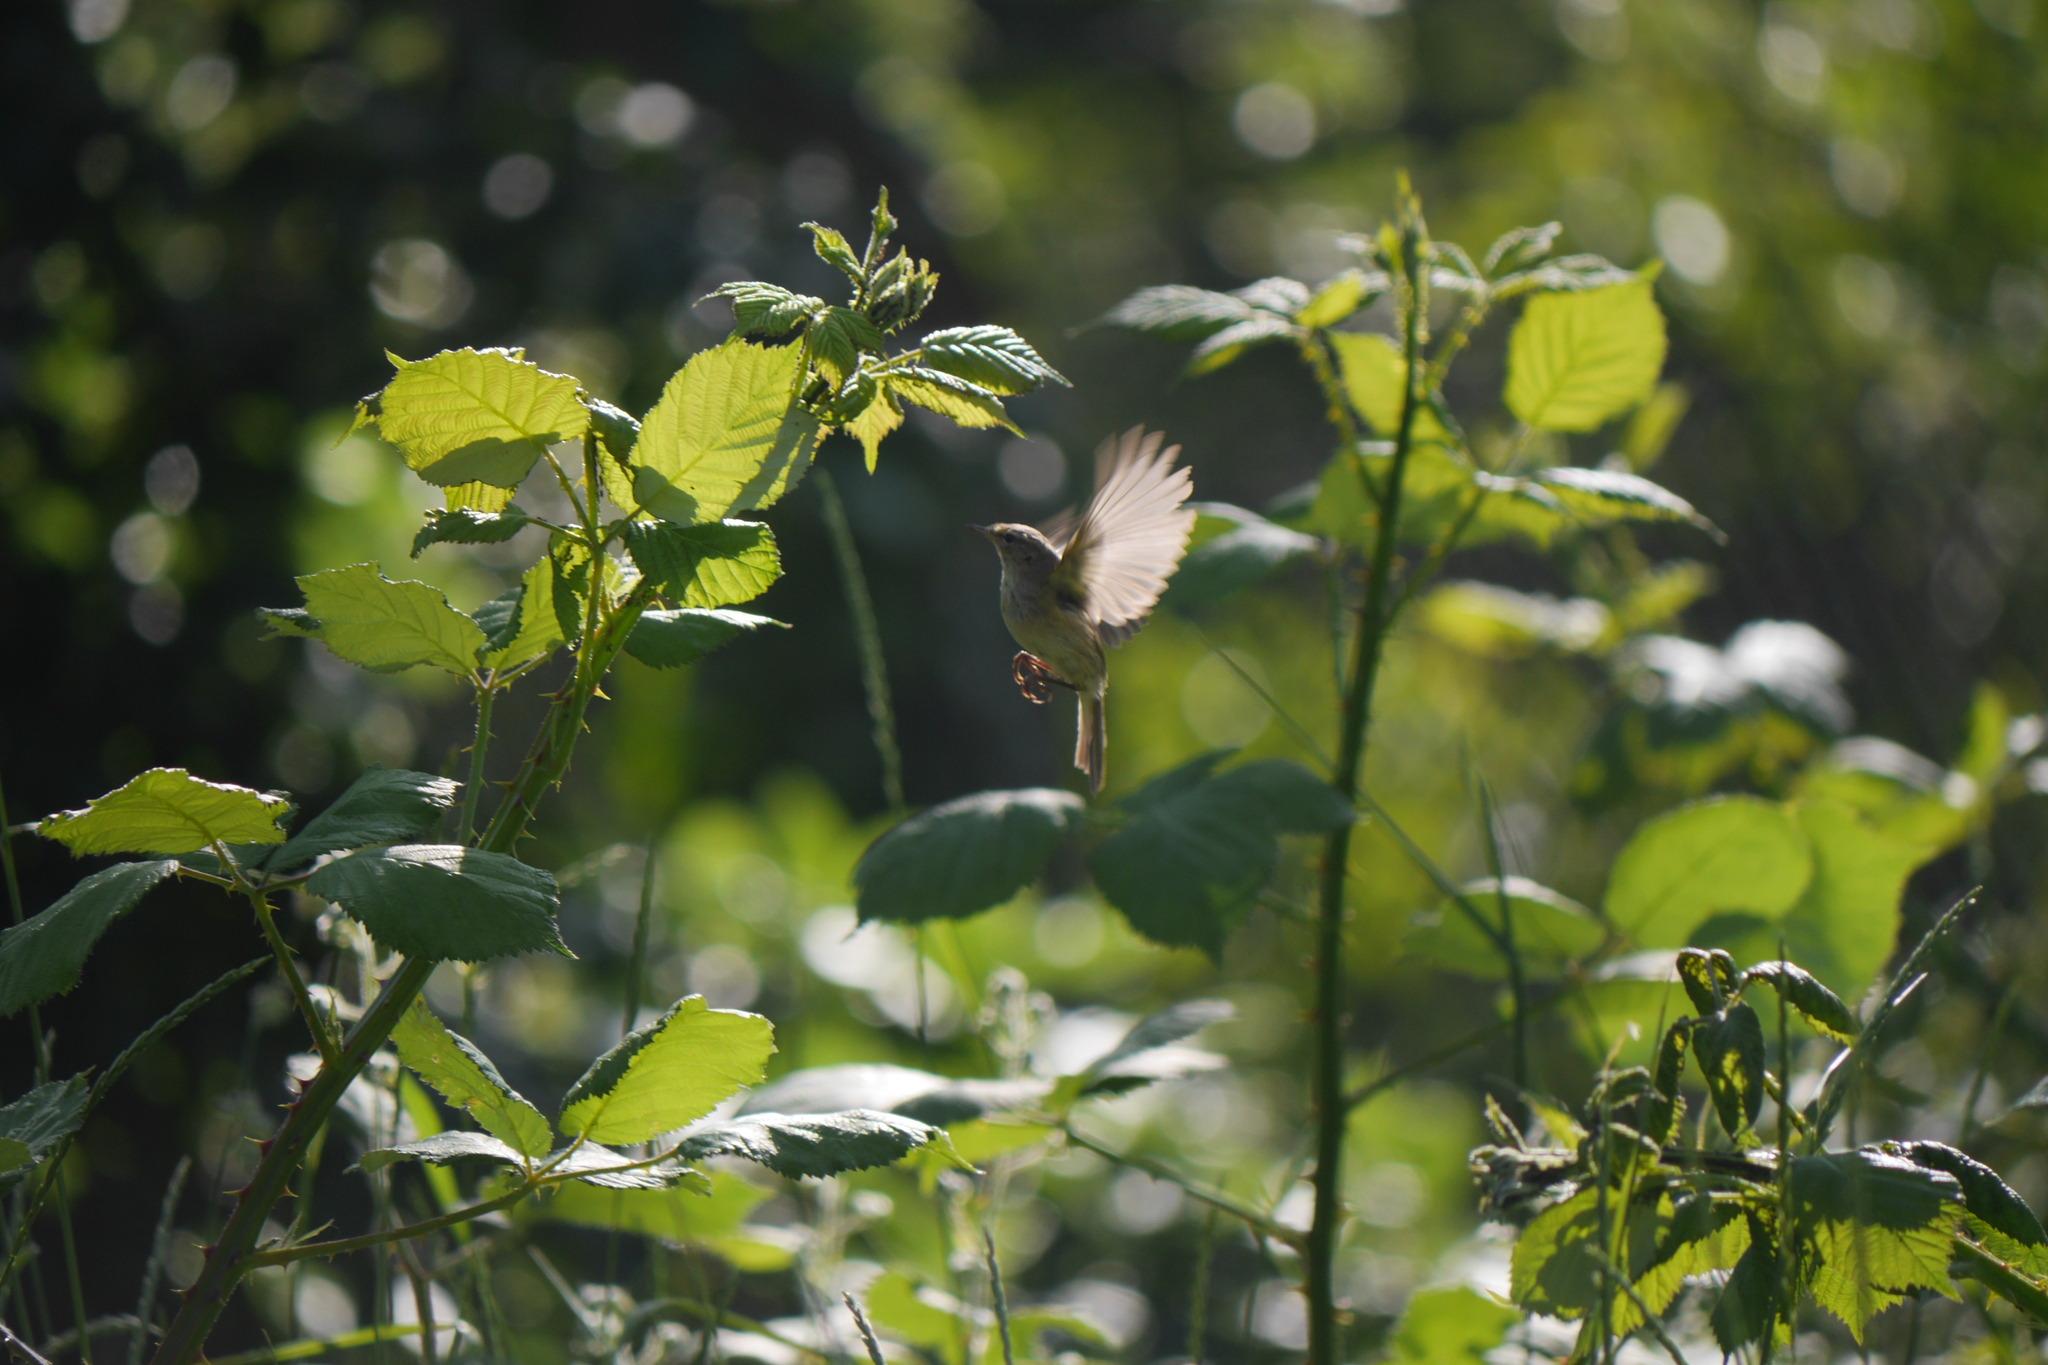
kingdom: Animalia
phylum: Chordata
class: Aves
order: Passeriformes
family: Phylloscopidae
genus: Phylloscopus
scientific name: Phylloscopus trochilus
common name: Willow warbler
